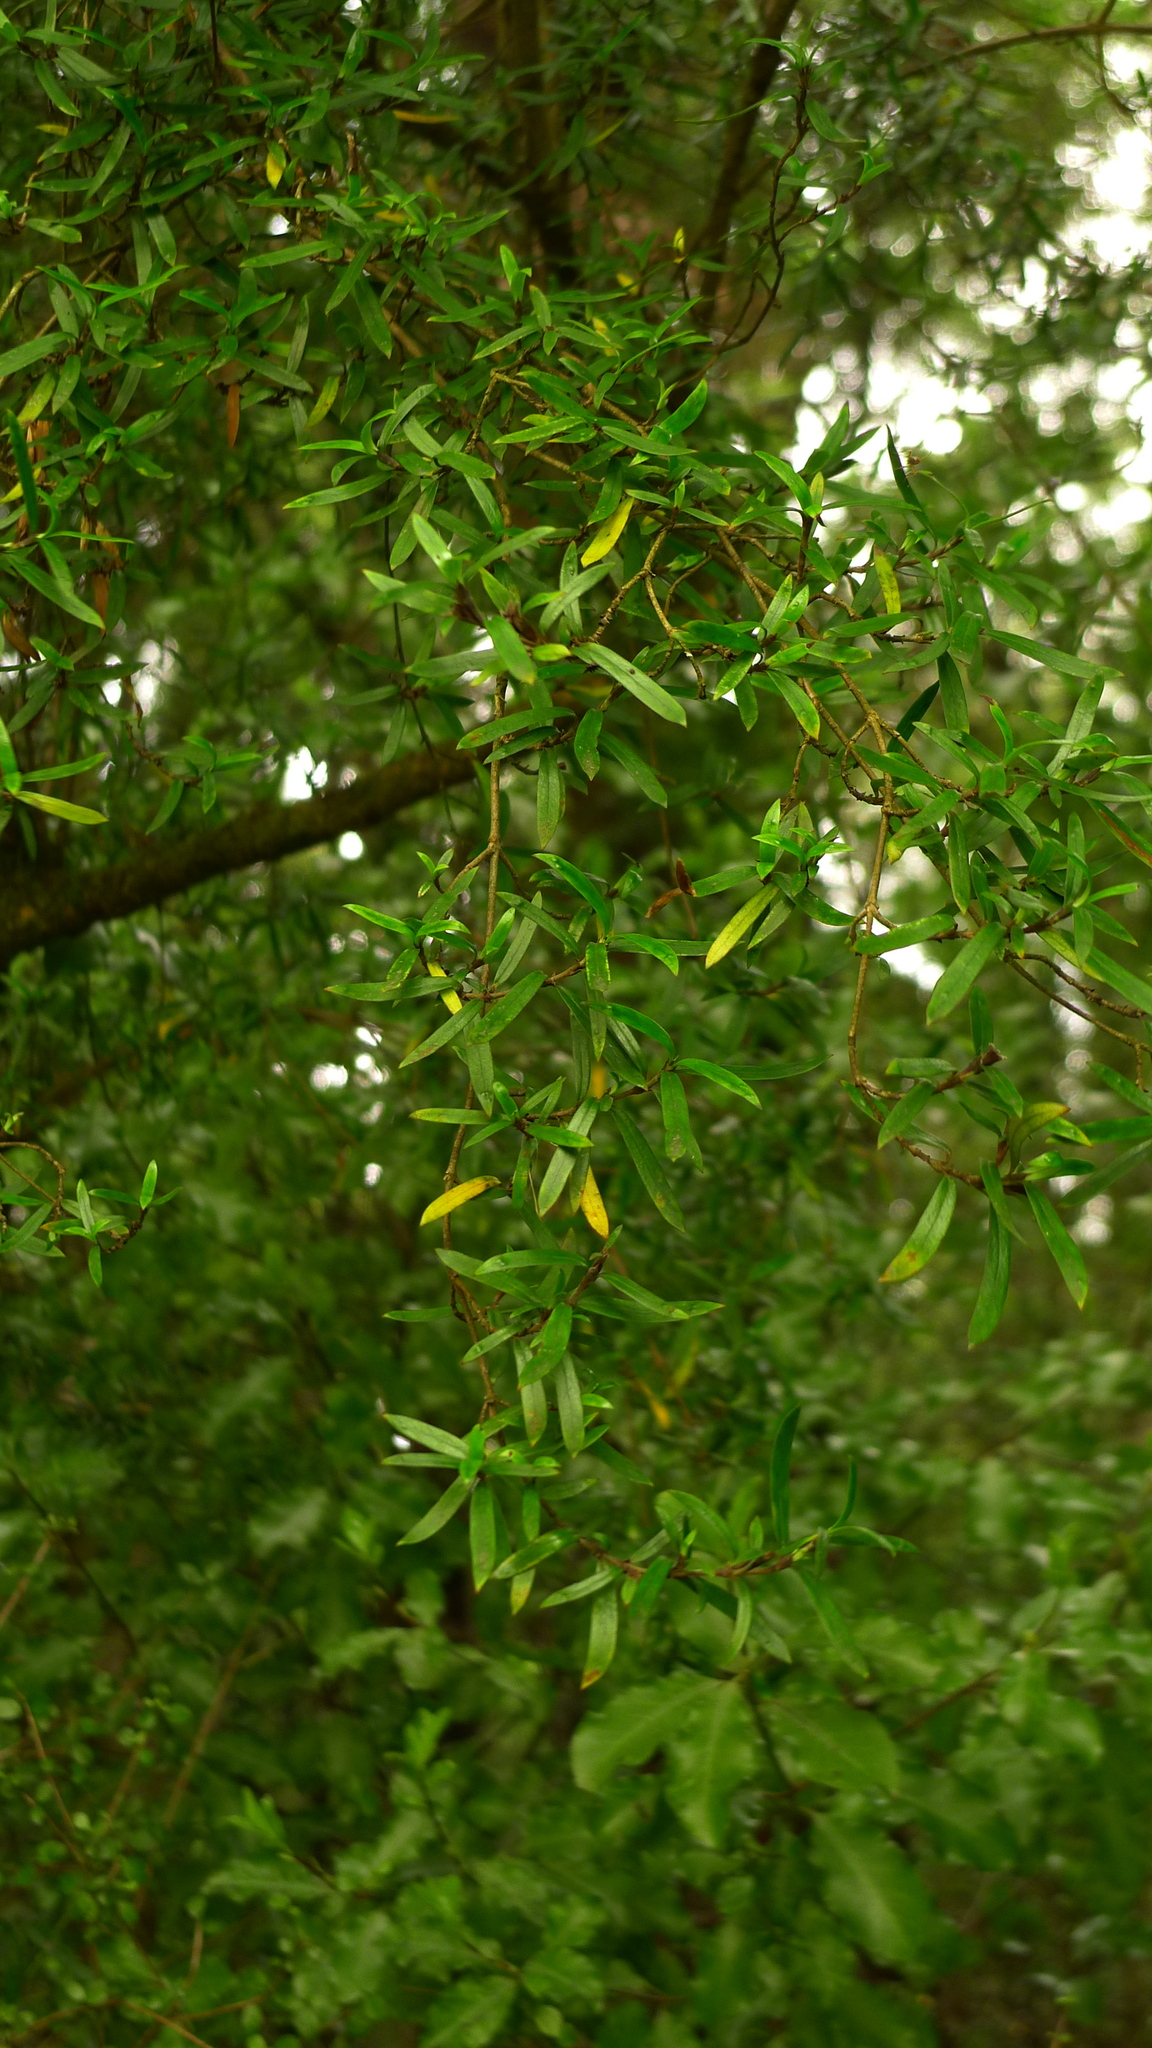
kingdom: Plantae
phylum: Tracheophyta
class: Magnoliopsida
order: Gentianales
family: Rubiaceae
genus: Coprosma
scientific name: Coprosma linariifolia
